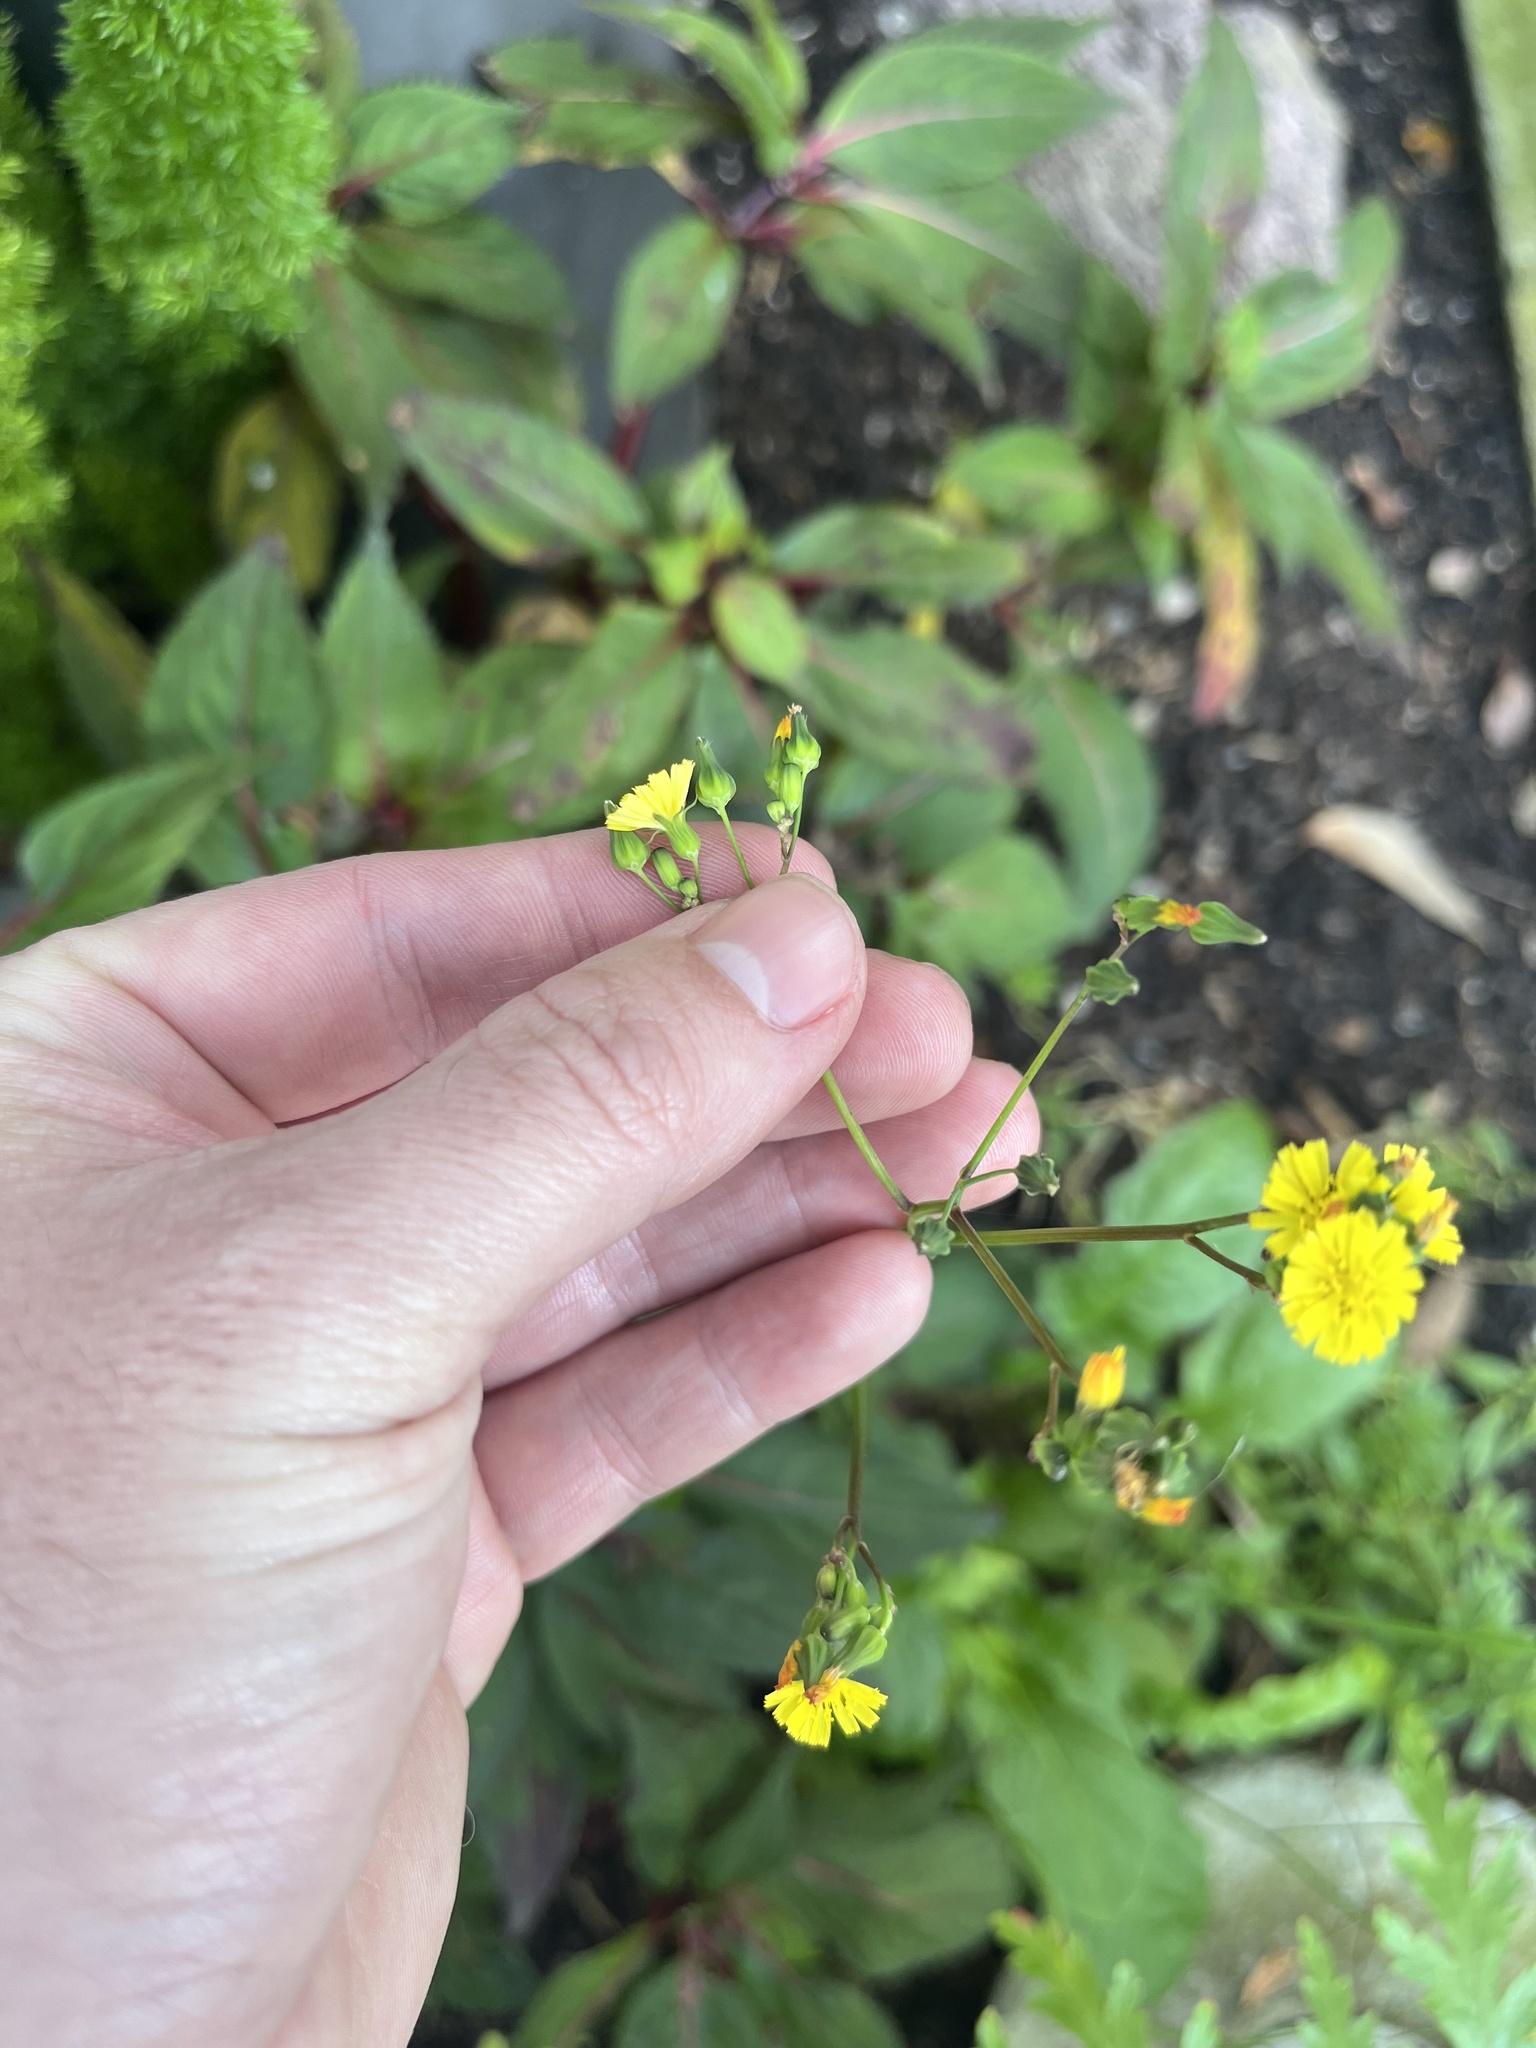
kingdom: Plantae
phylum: Tracheophyta
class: Magnoliopsida
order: Asterales
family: Asteraceae
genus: Youngia
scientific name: Youngia japonica
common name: Oriental false hawksbeard
